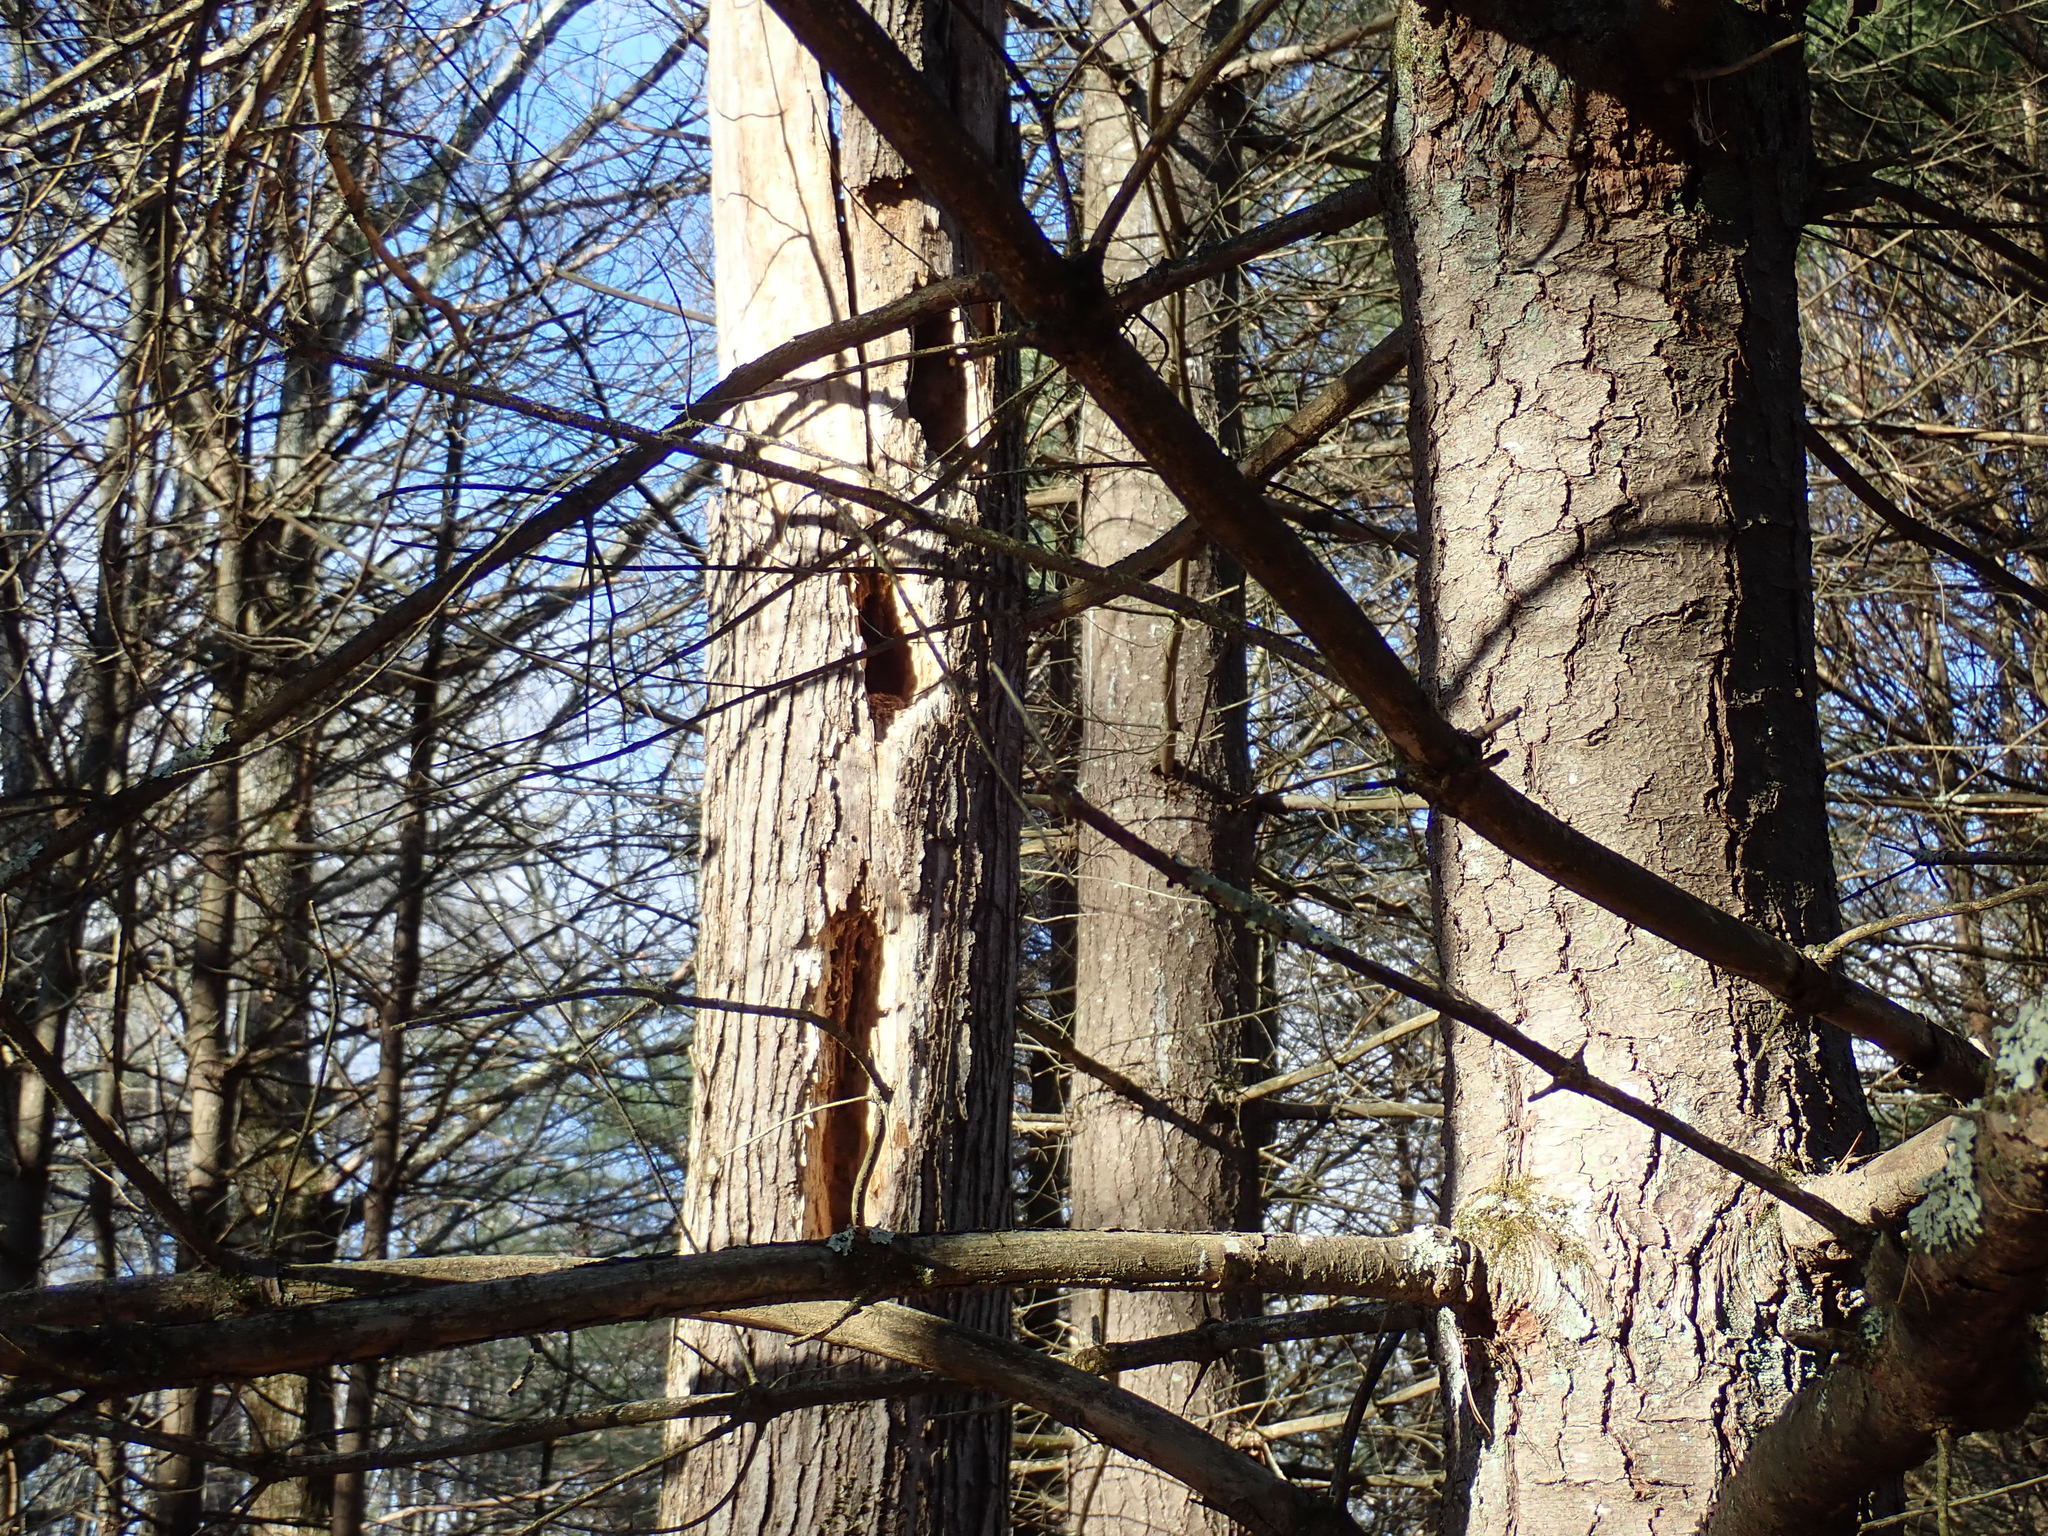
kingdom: Animalia
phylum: Chordata
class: Aves
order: Piciformes
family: Picidae
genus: Dryocopus
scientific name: Dryocopus pileatus
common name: Pileated woodpecker
